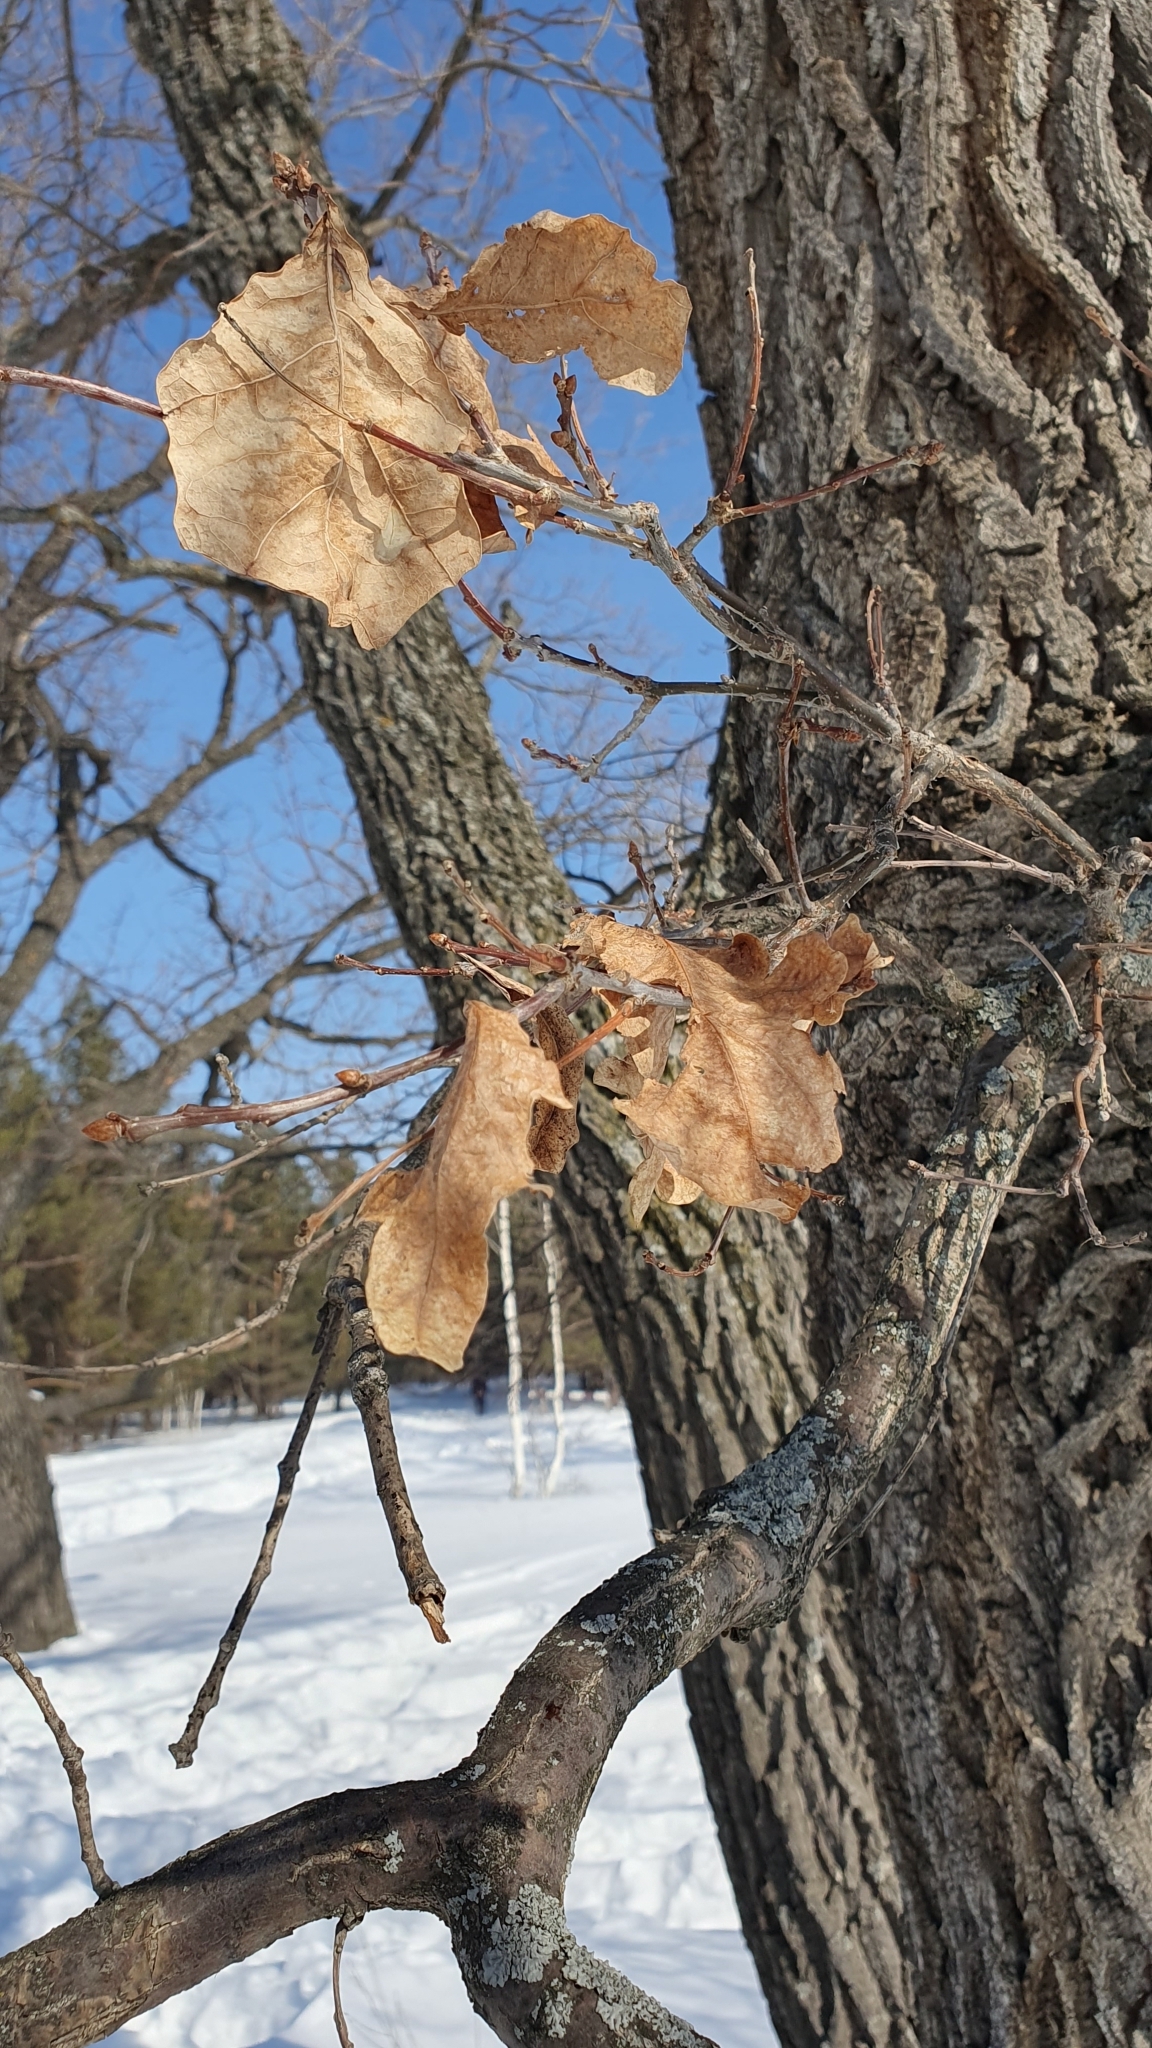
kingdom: Plantae
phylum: Tracheophyta
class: Magnoliopsida
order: Fagales
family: Fagaceae
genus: Quercus
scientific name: Quercus robur
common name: Pedunculate oak
